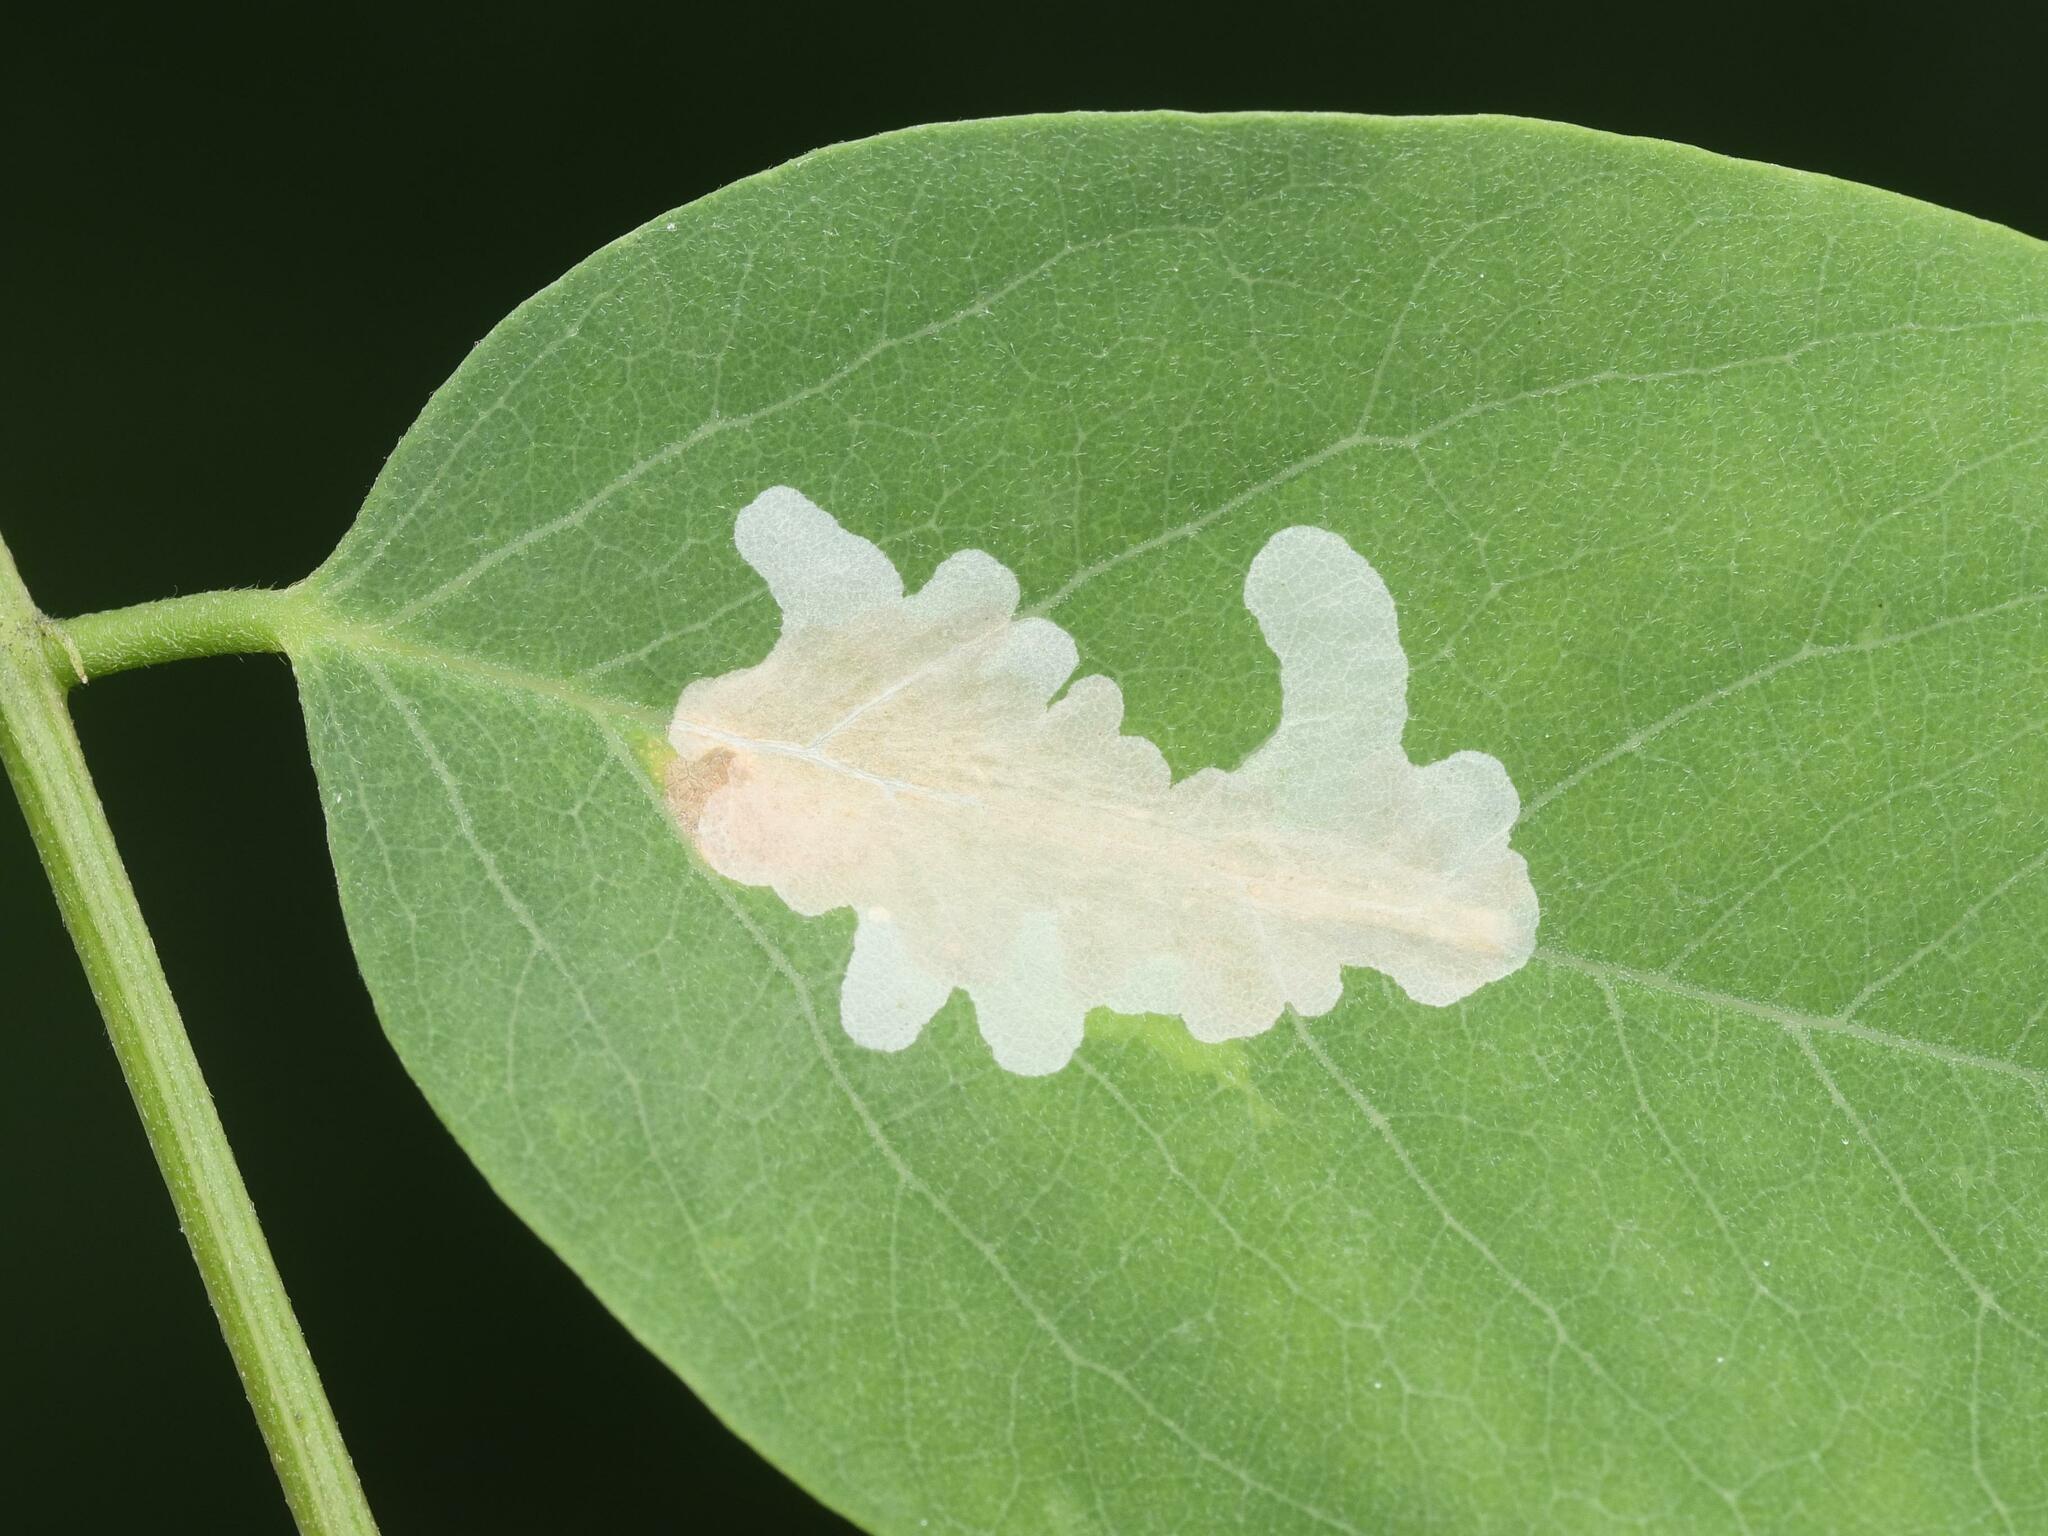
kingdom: Animalia
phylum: Arthropoda
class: Insecta
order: Lepidoptera
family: Gracillariidae
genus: Parectopa
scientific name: Parectopa robiniella
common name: Locust digitate leafminer
